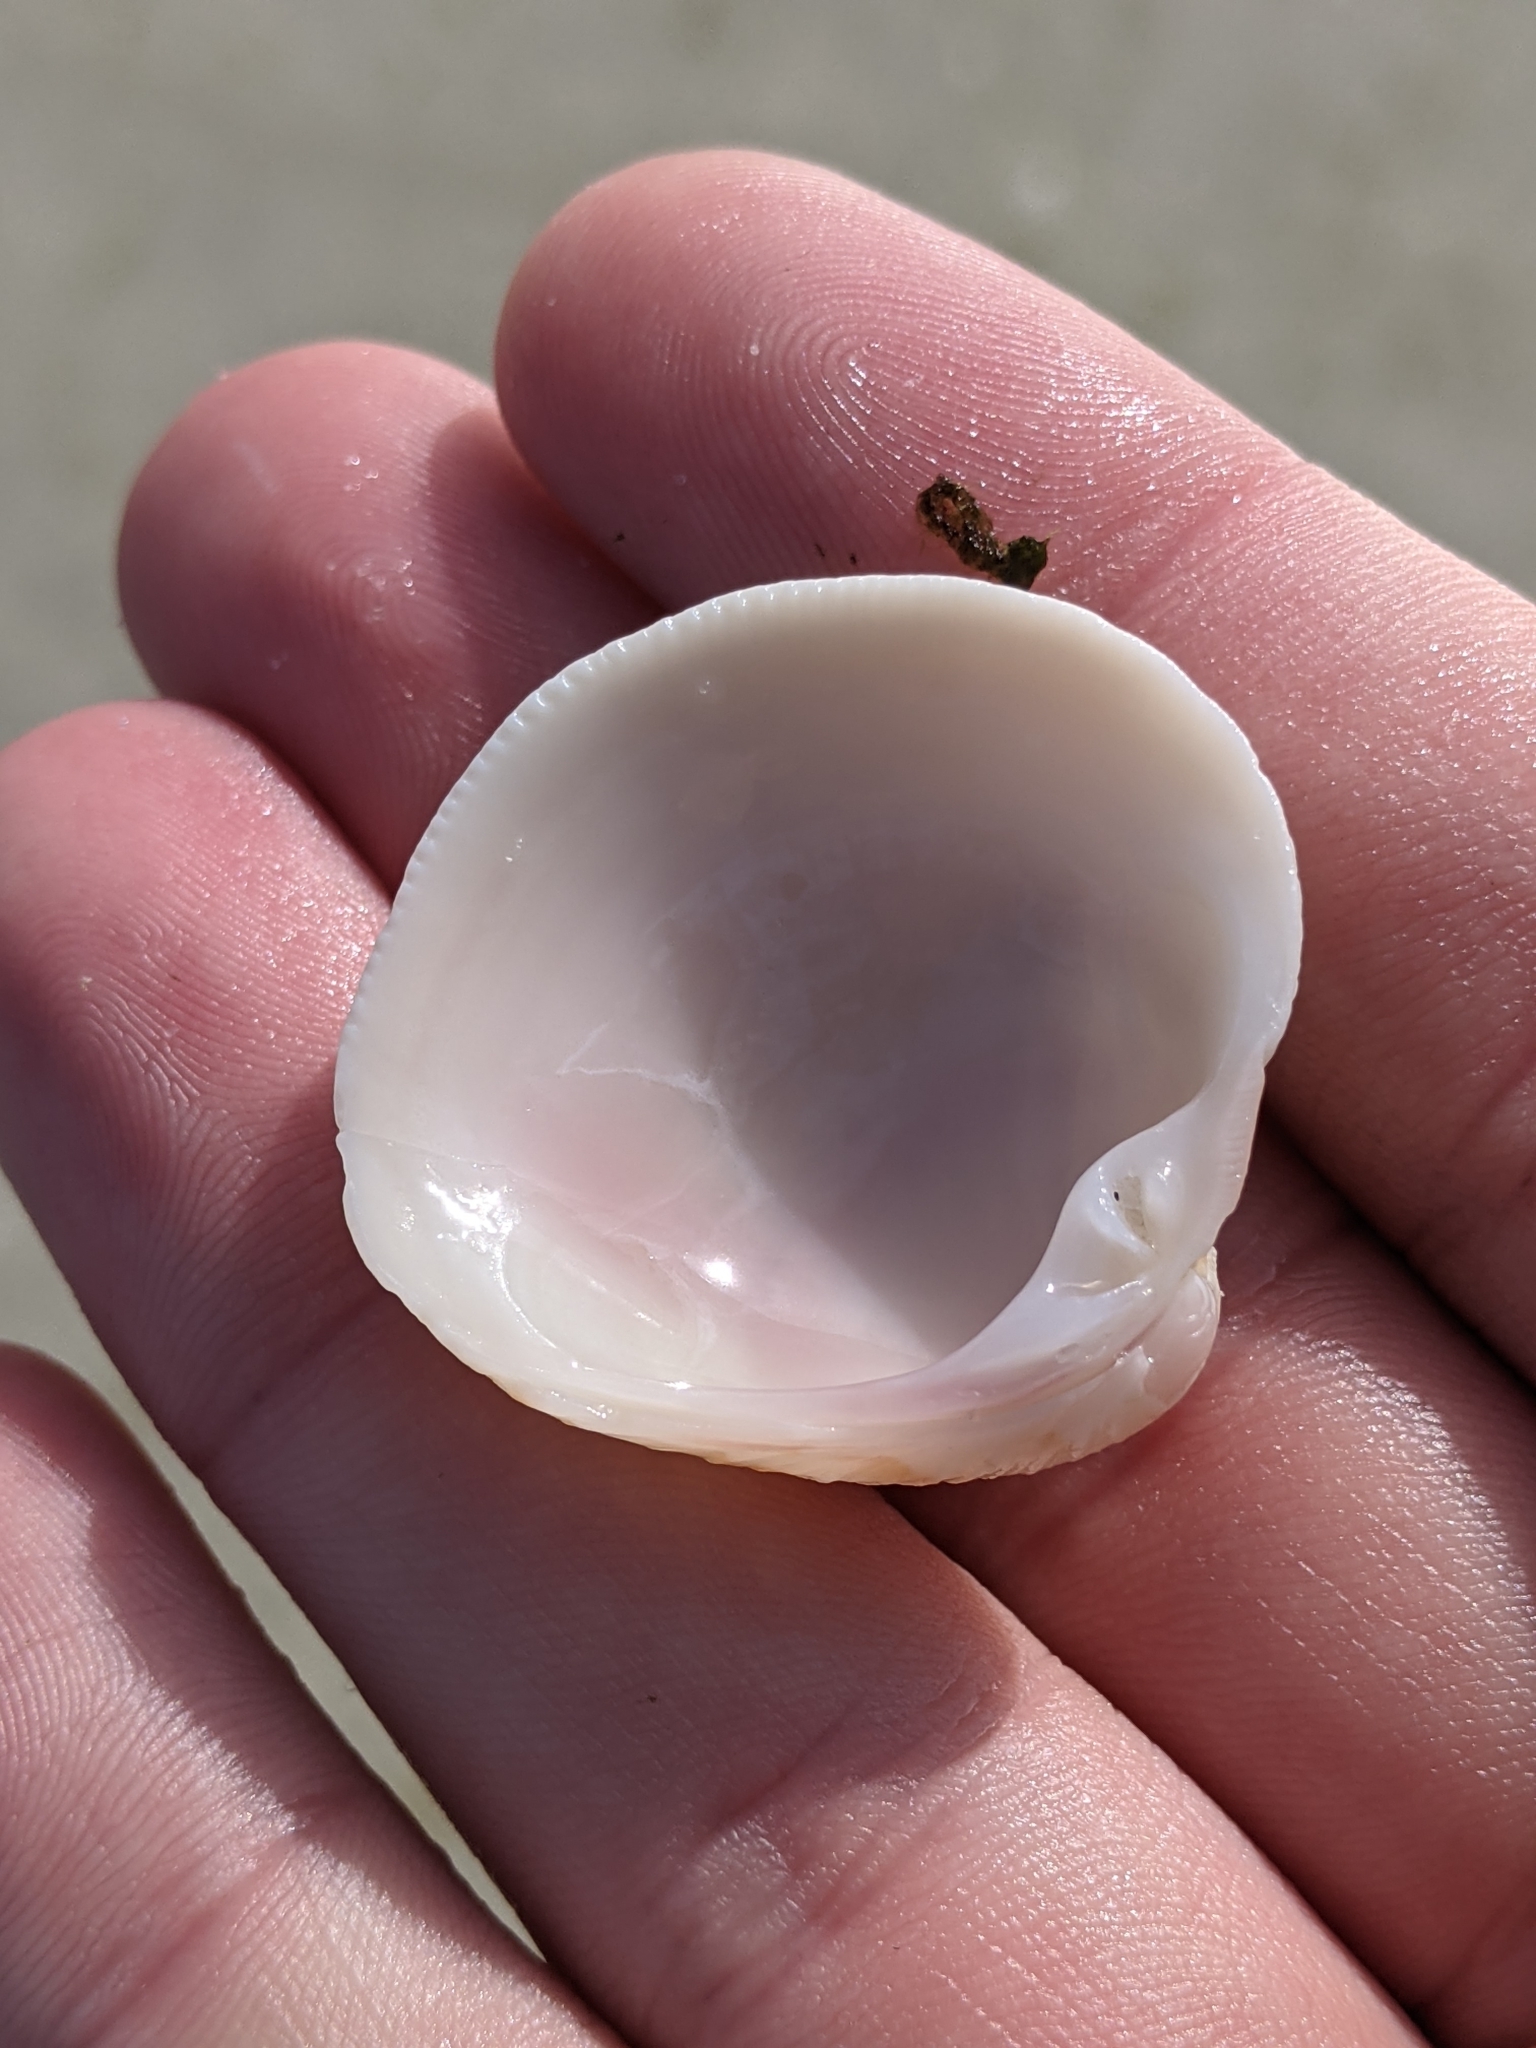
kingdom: Animalia
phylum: Mollusca
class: Bivalvia
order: Venerida
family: Veneridae
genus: Chionopsis
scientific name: Chionopsis intapurpurea
